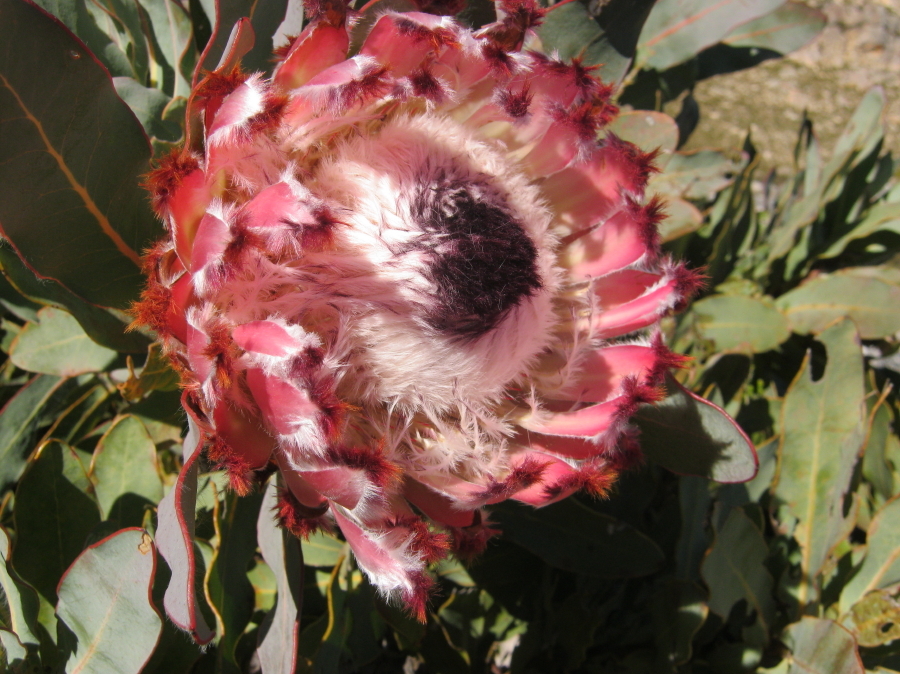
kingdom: Plantae
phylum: Tracheophyta
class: Magnoliopsida
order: Proteales
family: Proteaceae
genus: Protea
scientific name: Protea magnifica
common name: Bearded sugarbush
